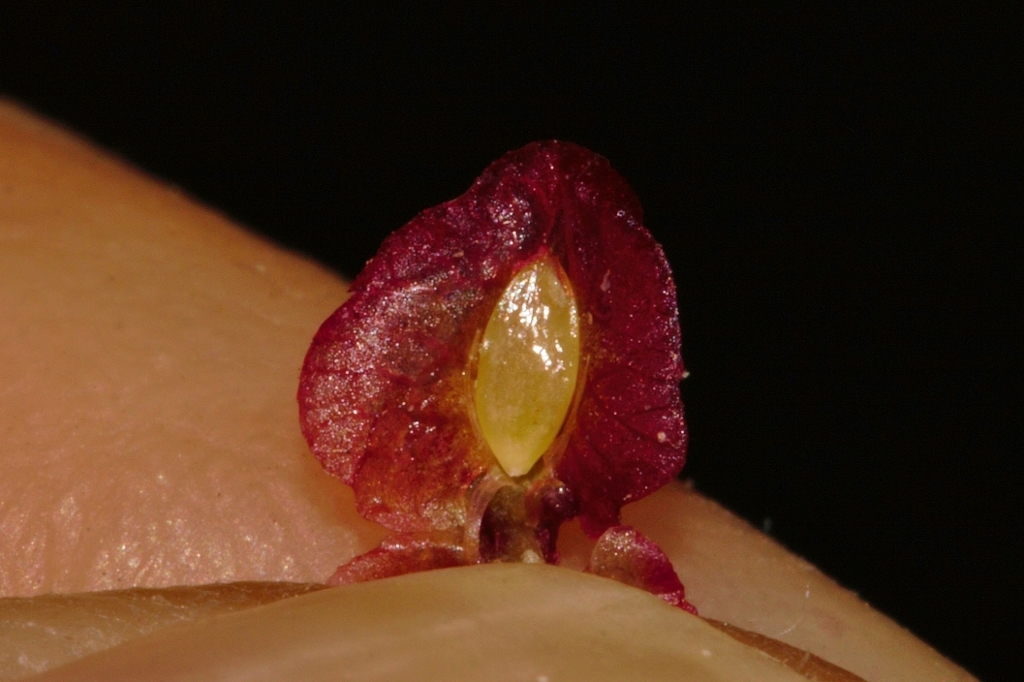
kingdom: Plantae
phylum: Tracheophyta
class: Magnoliopsida
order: Caryophyllales
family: Polygonaceae
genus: Rumex
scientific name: Rumex usambarensis
